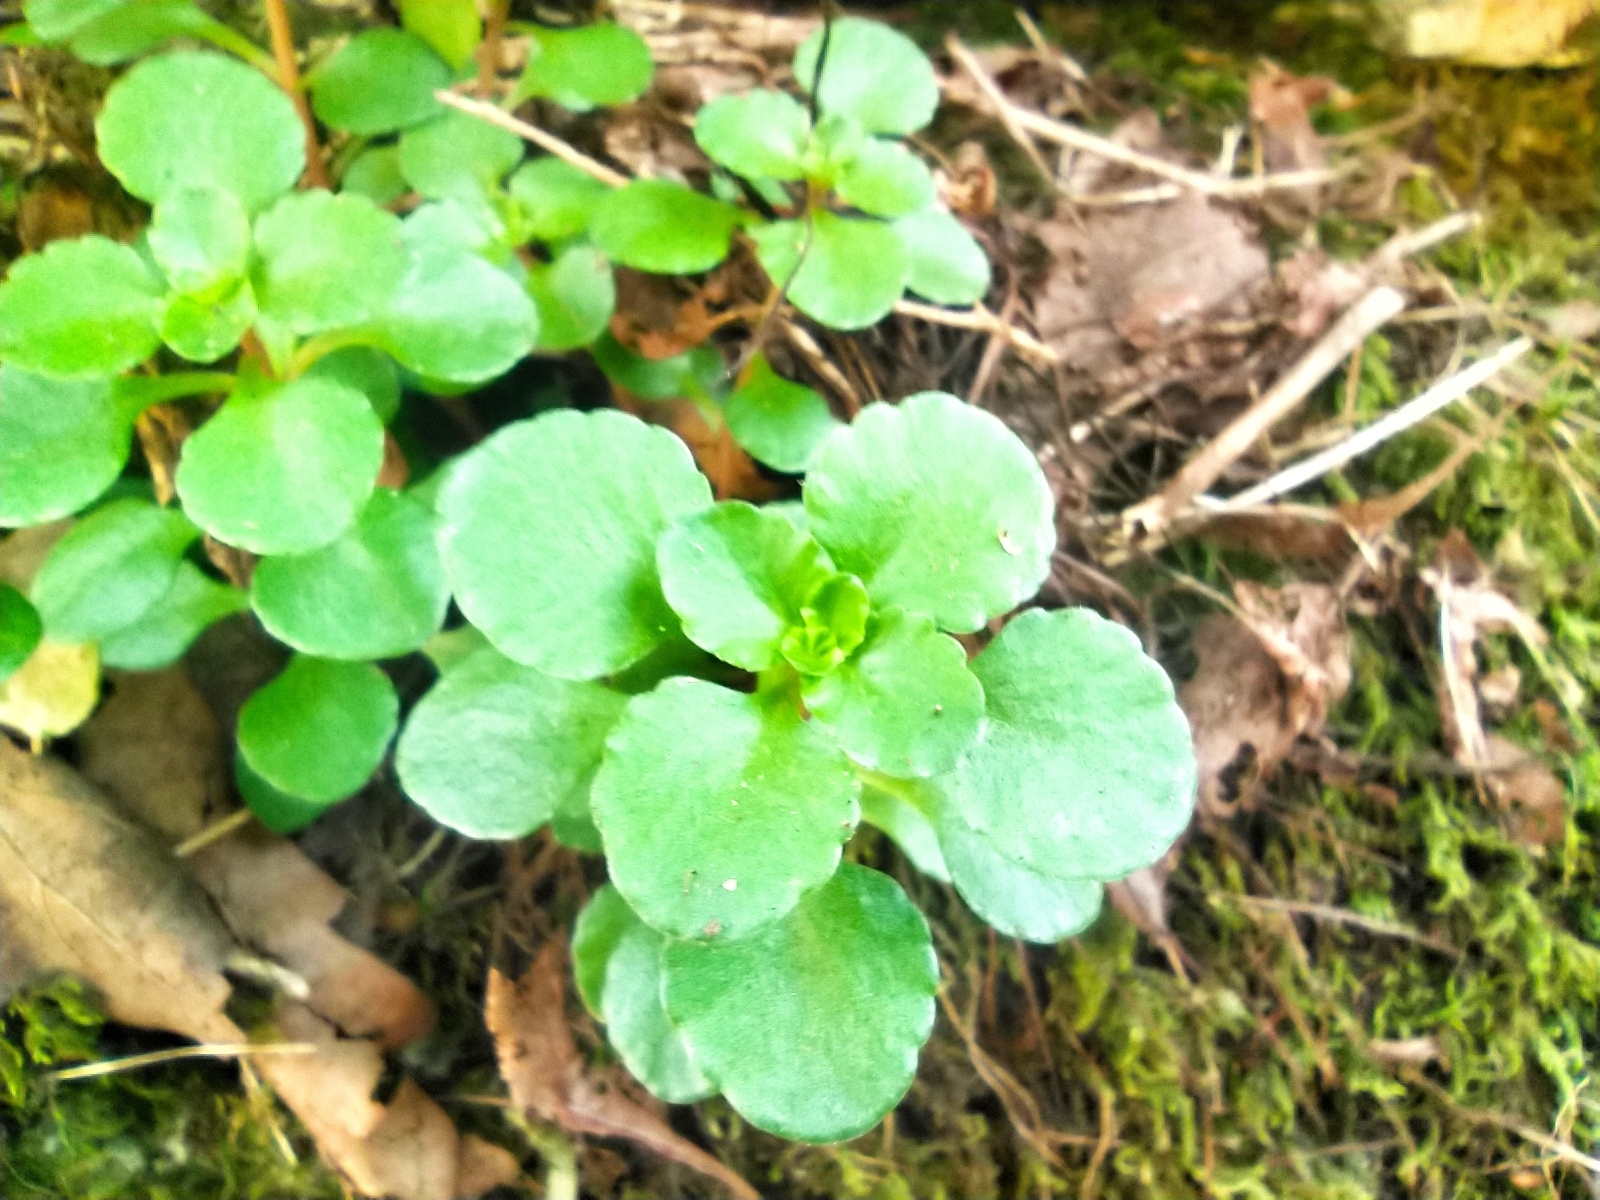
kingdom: Plantae
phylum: Tracheophyta
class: Magnoliopsida
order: Saxifragales
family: Crassulaceae
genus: Phedimus
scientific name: Phedimus stolonifer
